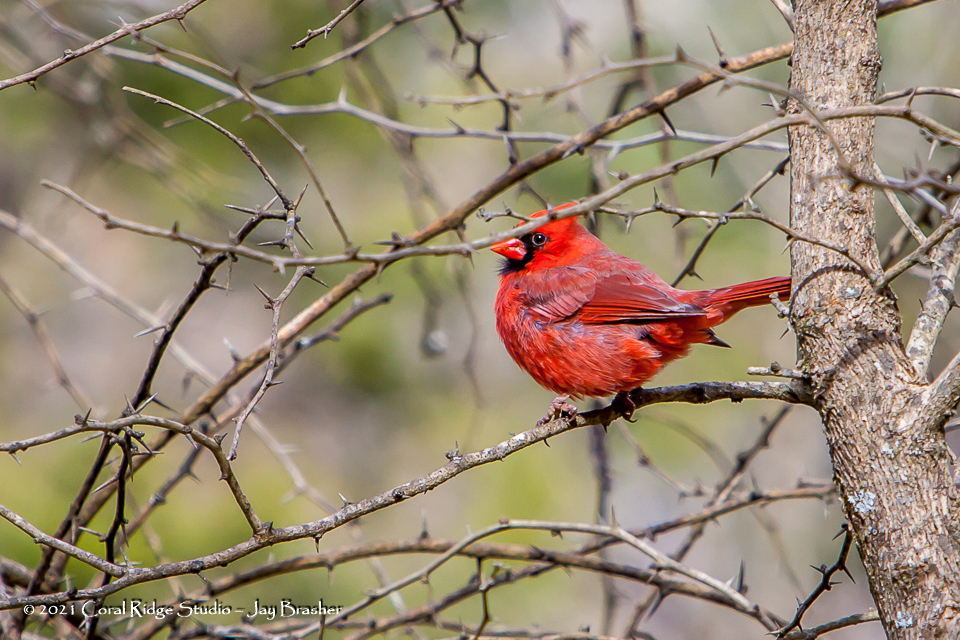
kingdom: Animalia
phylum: Chordata
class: Aves
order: Passeriformes
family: Cardinalidae
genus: Cardinalis
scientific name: Cardinalis cardinalis
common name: Northern cardinal
